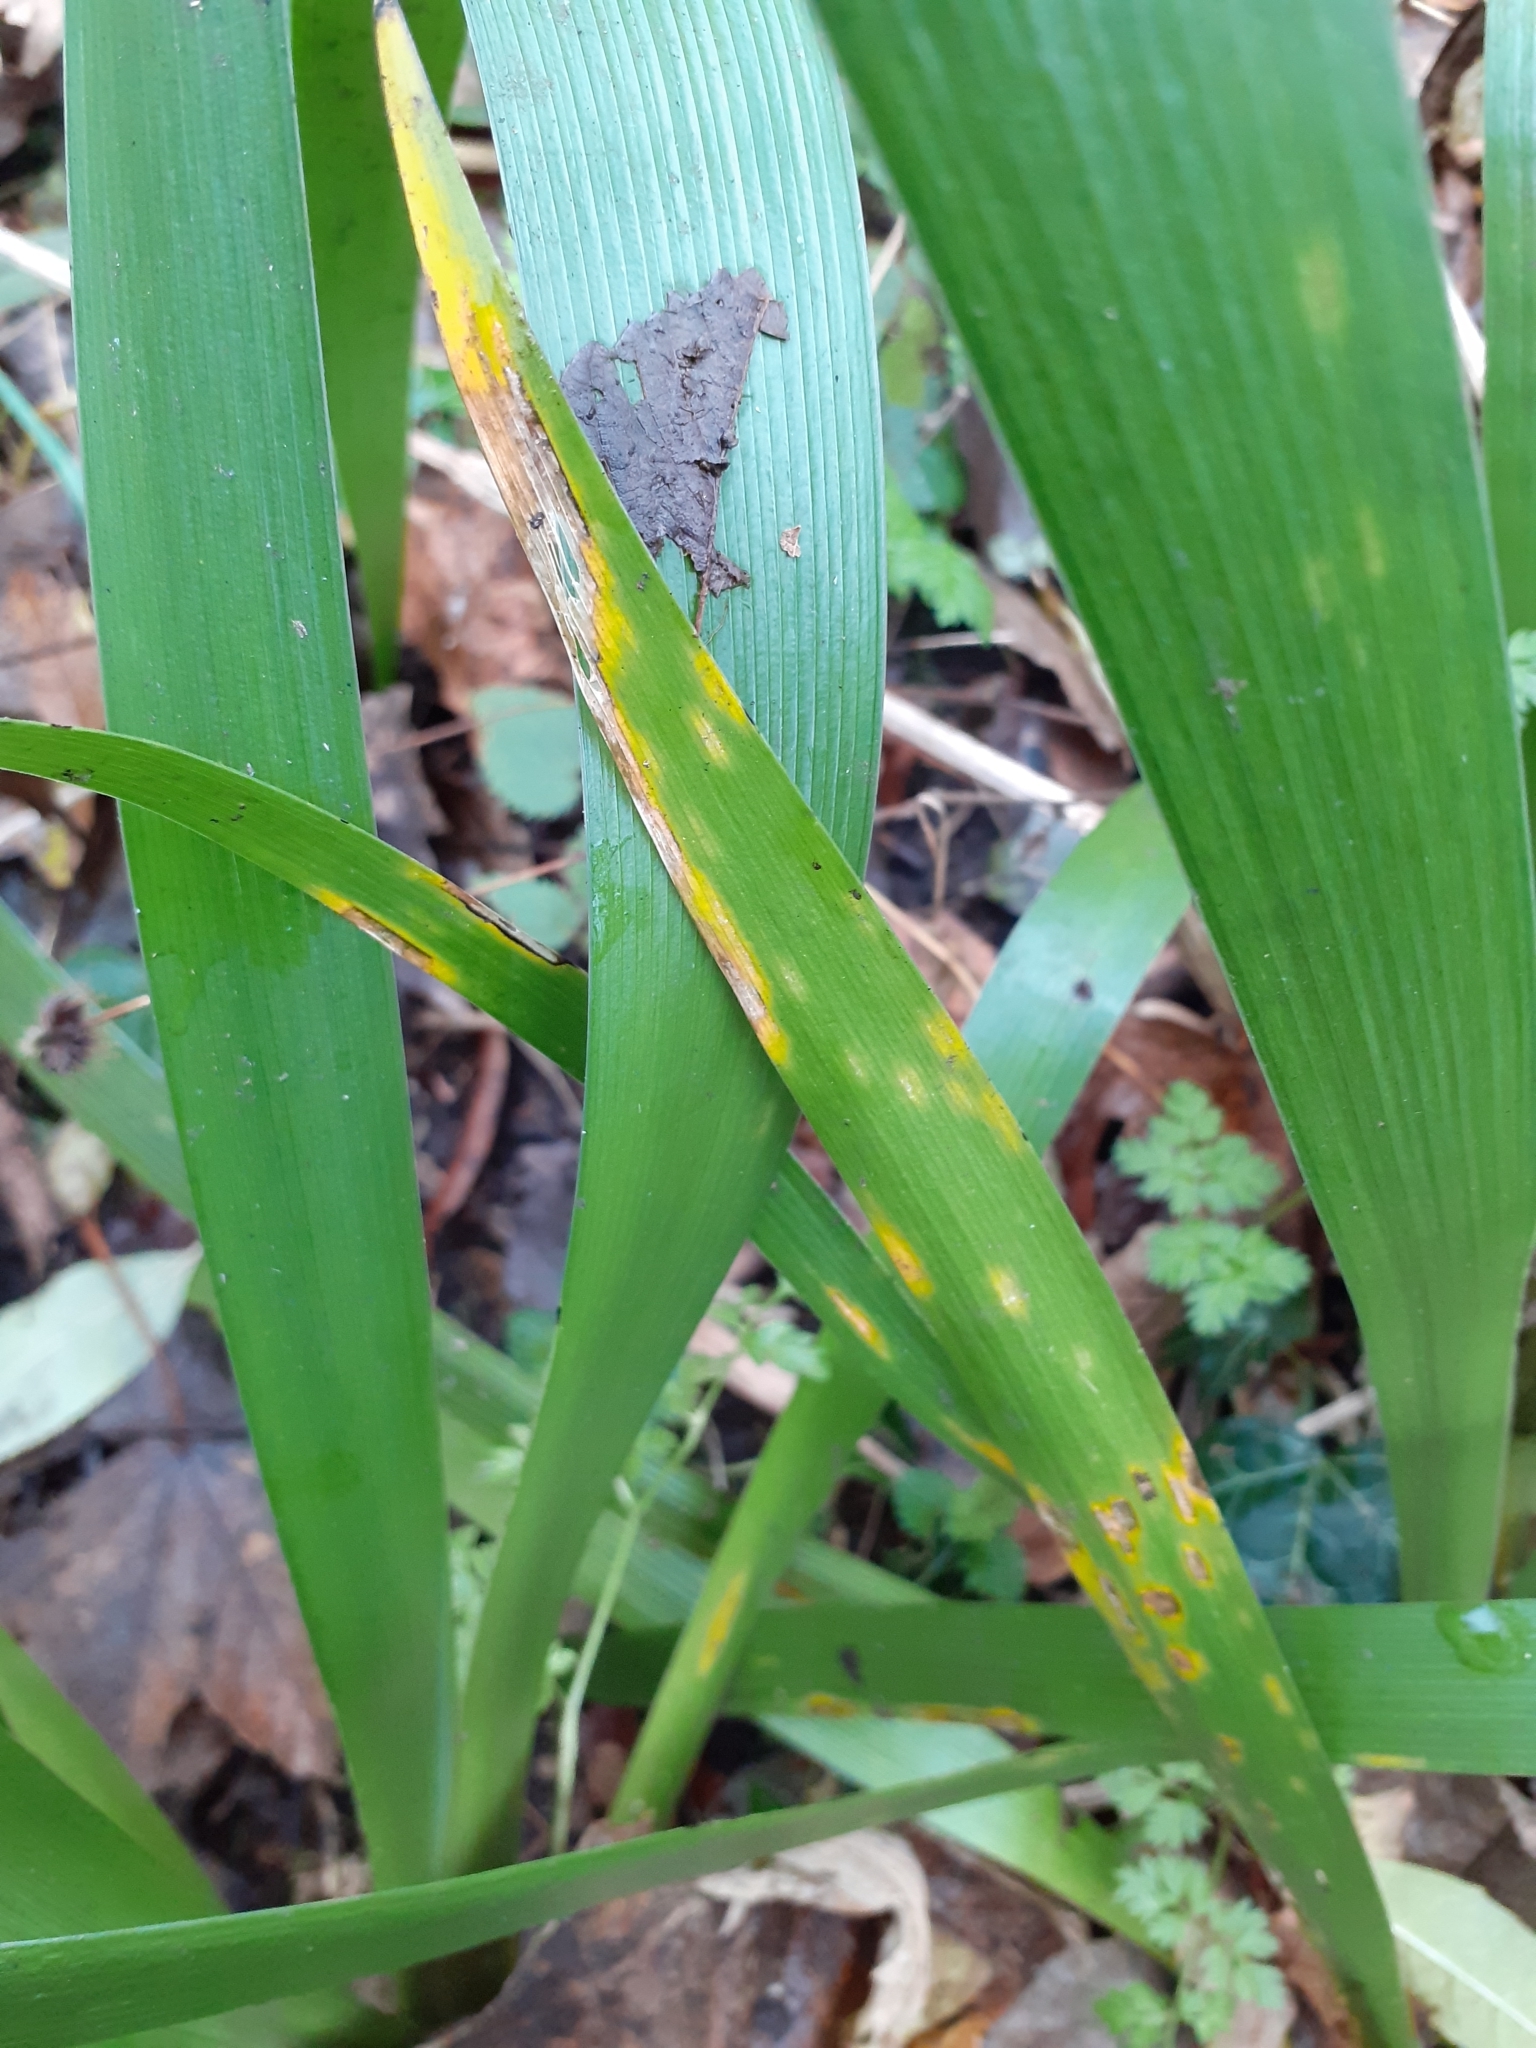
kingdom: Fungi
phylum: Basidiomycota
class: Pucciniomycetes
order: Pucciniales
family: Pucciniaceae
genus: Puccinia
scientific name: Puccinia iridis
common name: Iris rust
